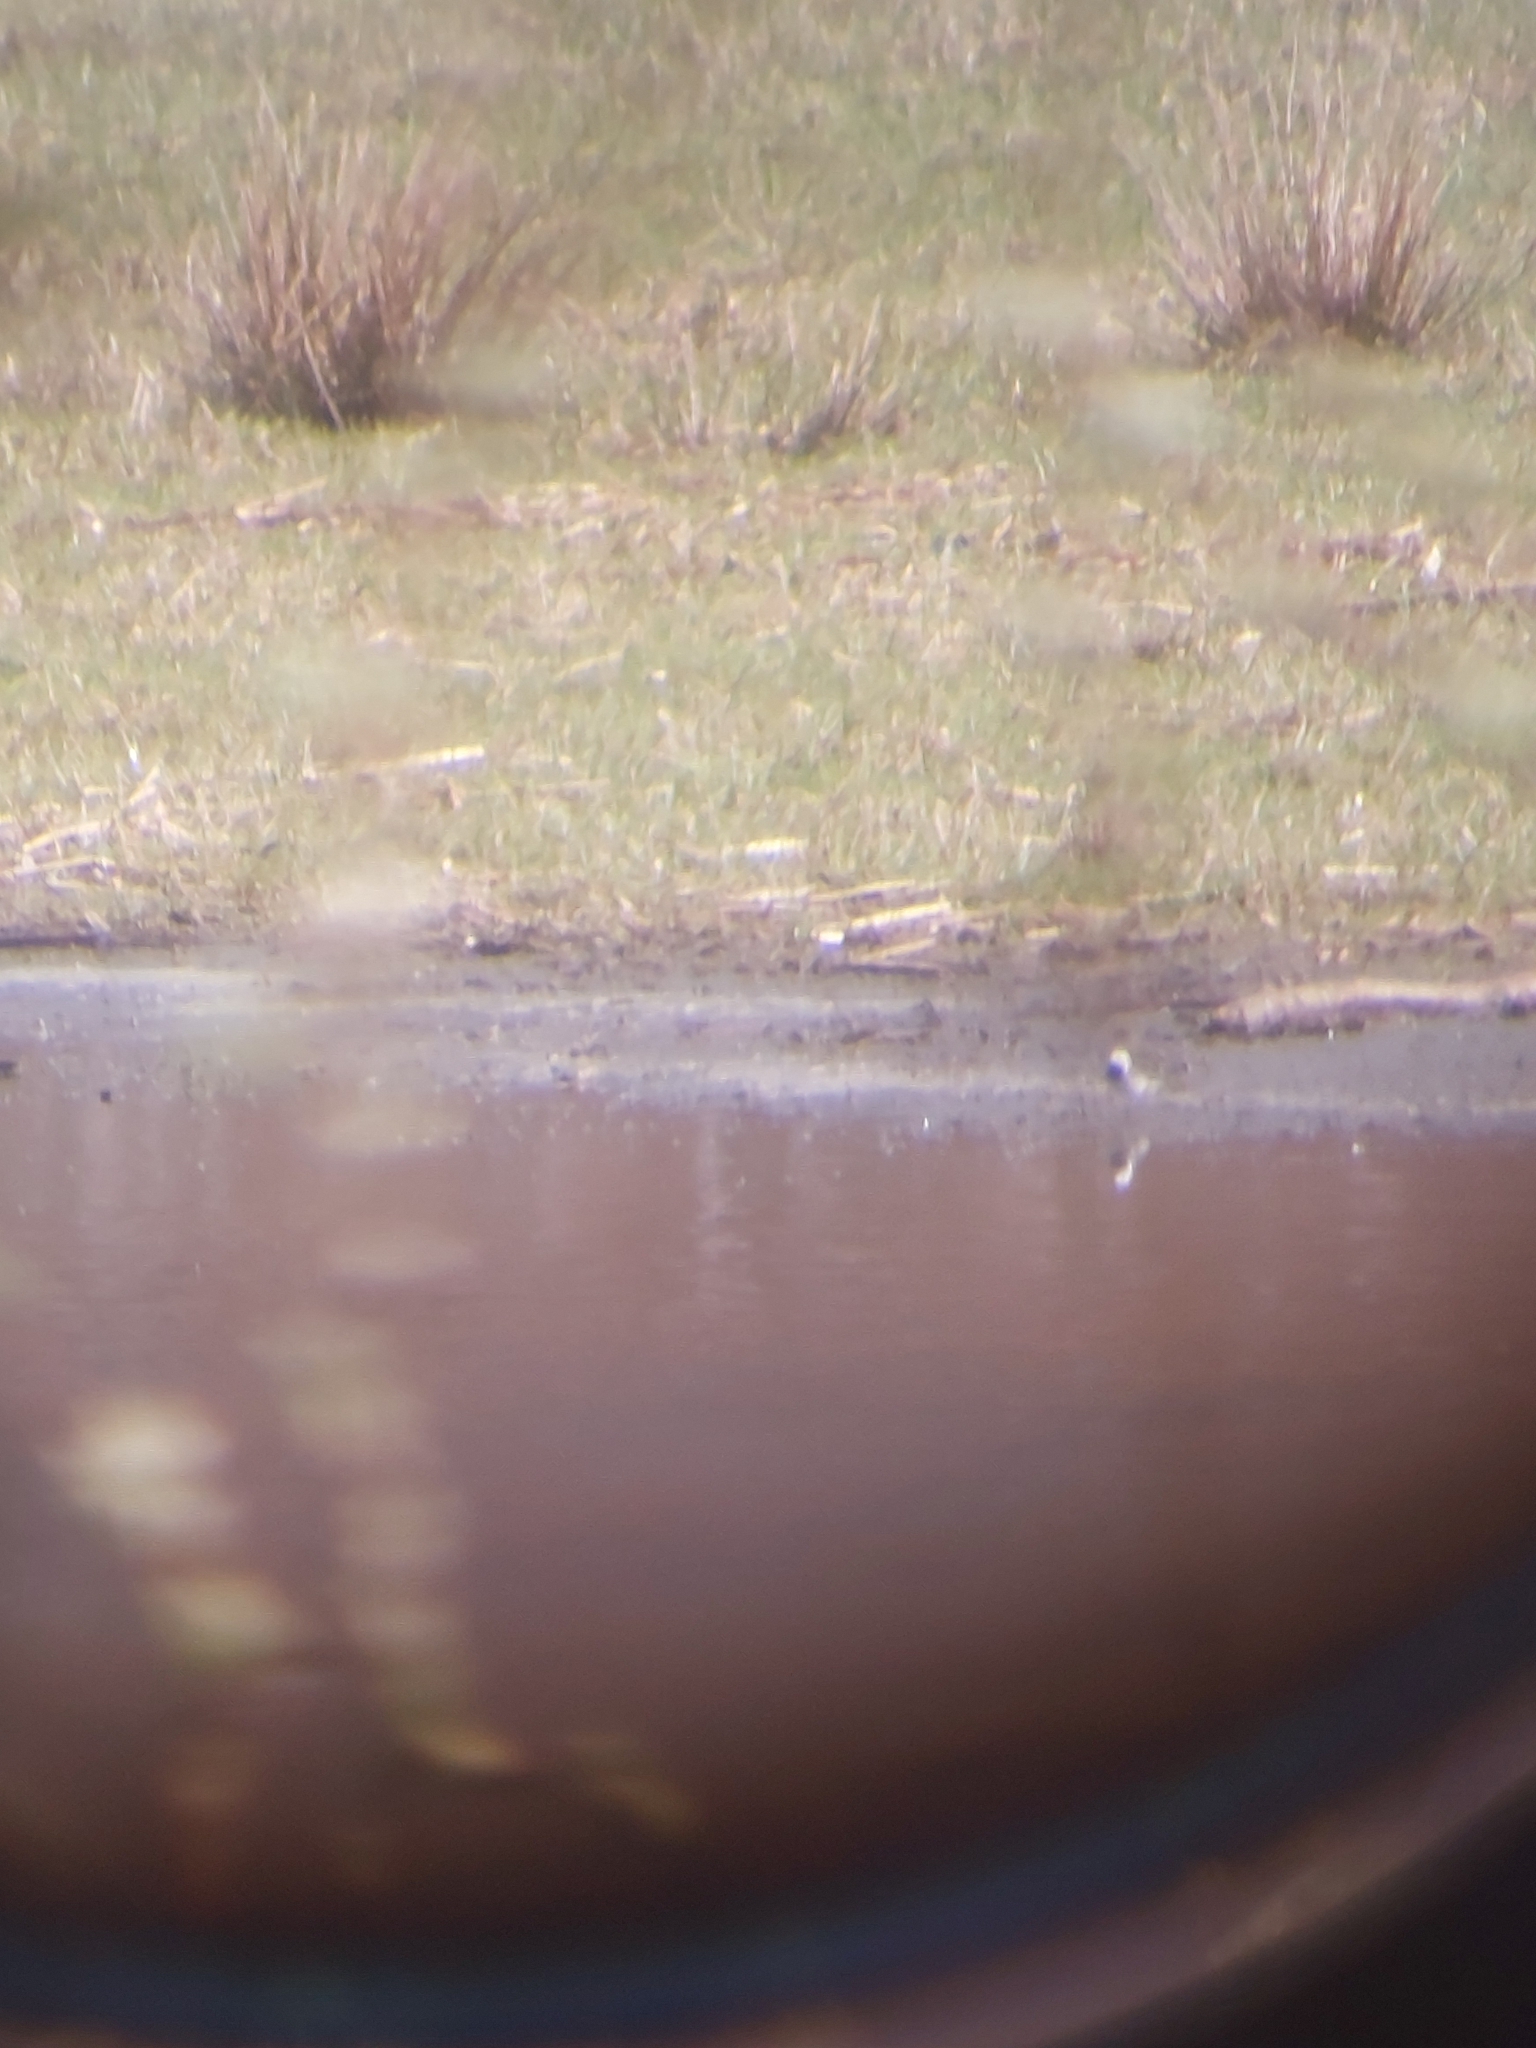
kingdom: Animalia
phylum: Chordata
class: Aves
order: Passeriformes
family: Motacillidae
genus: Motacilla
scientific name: Motacilla alba
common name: White wagtail
